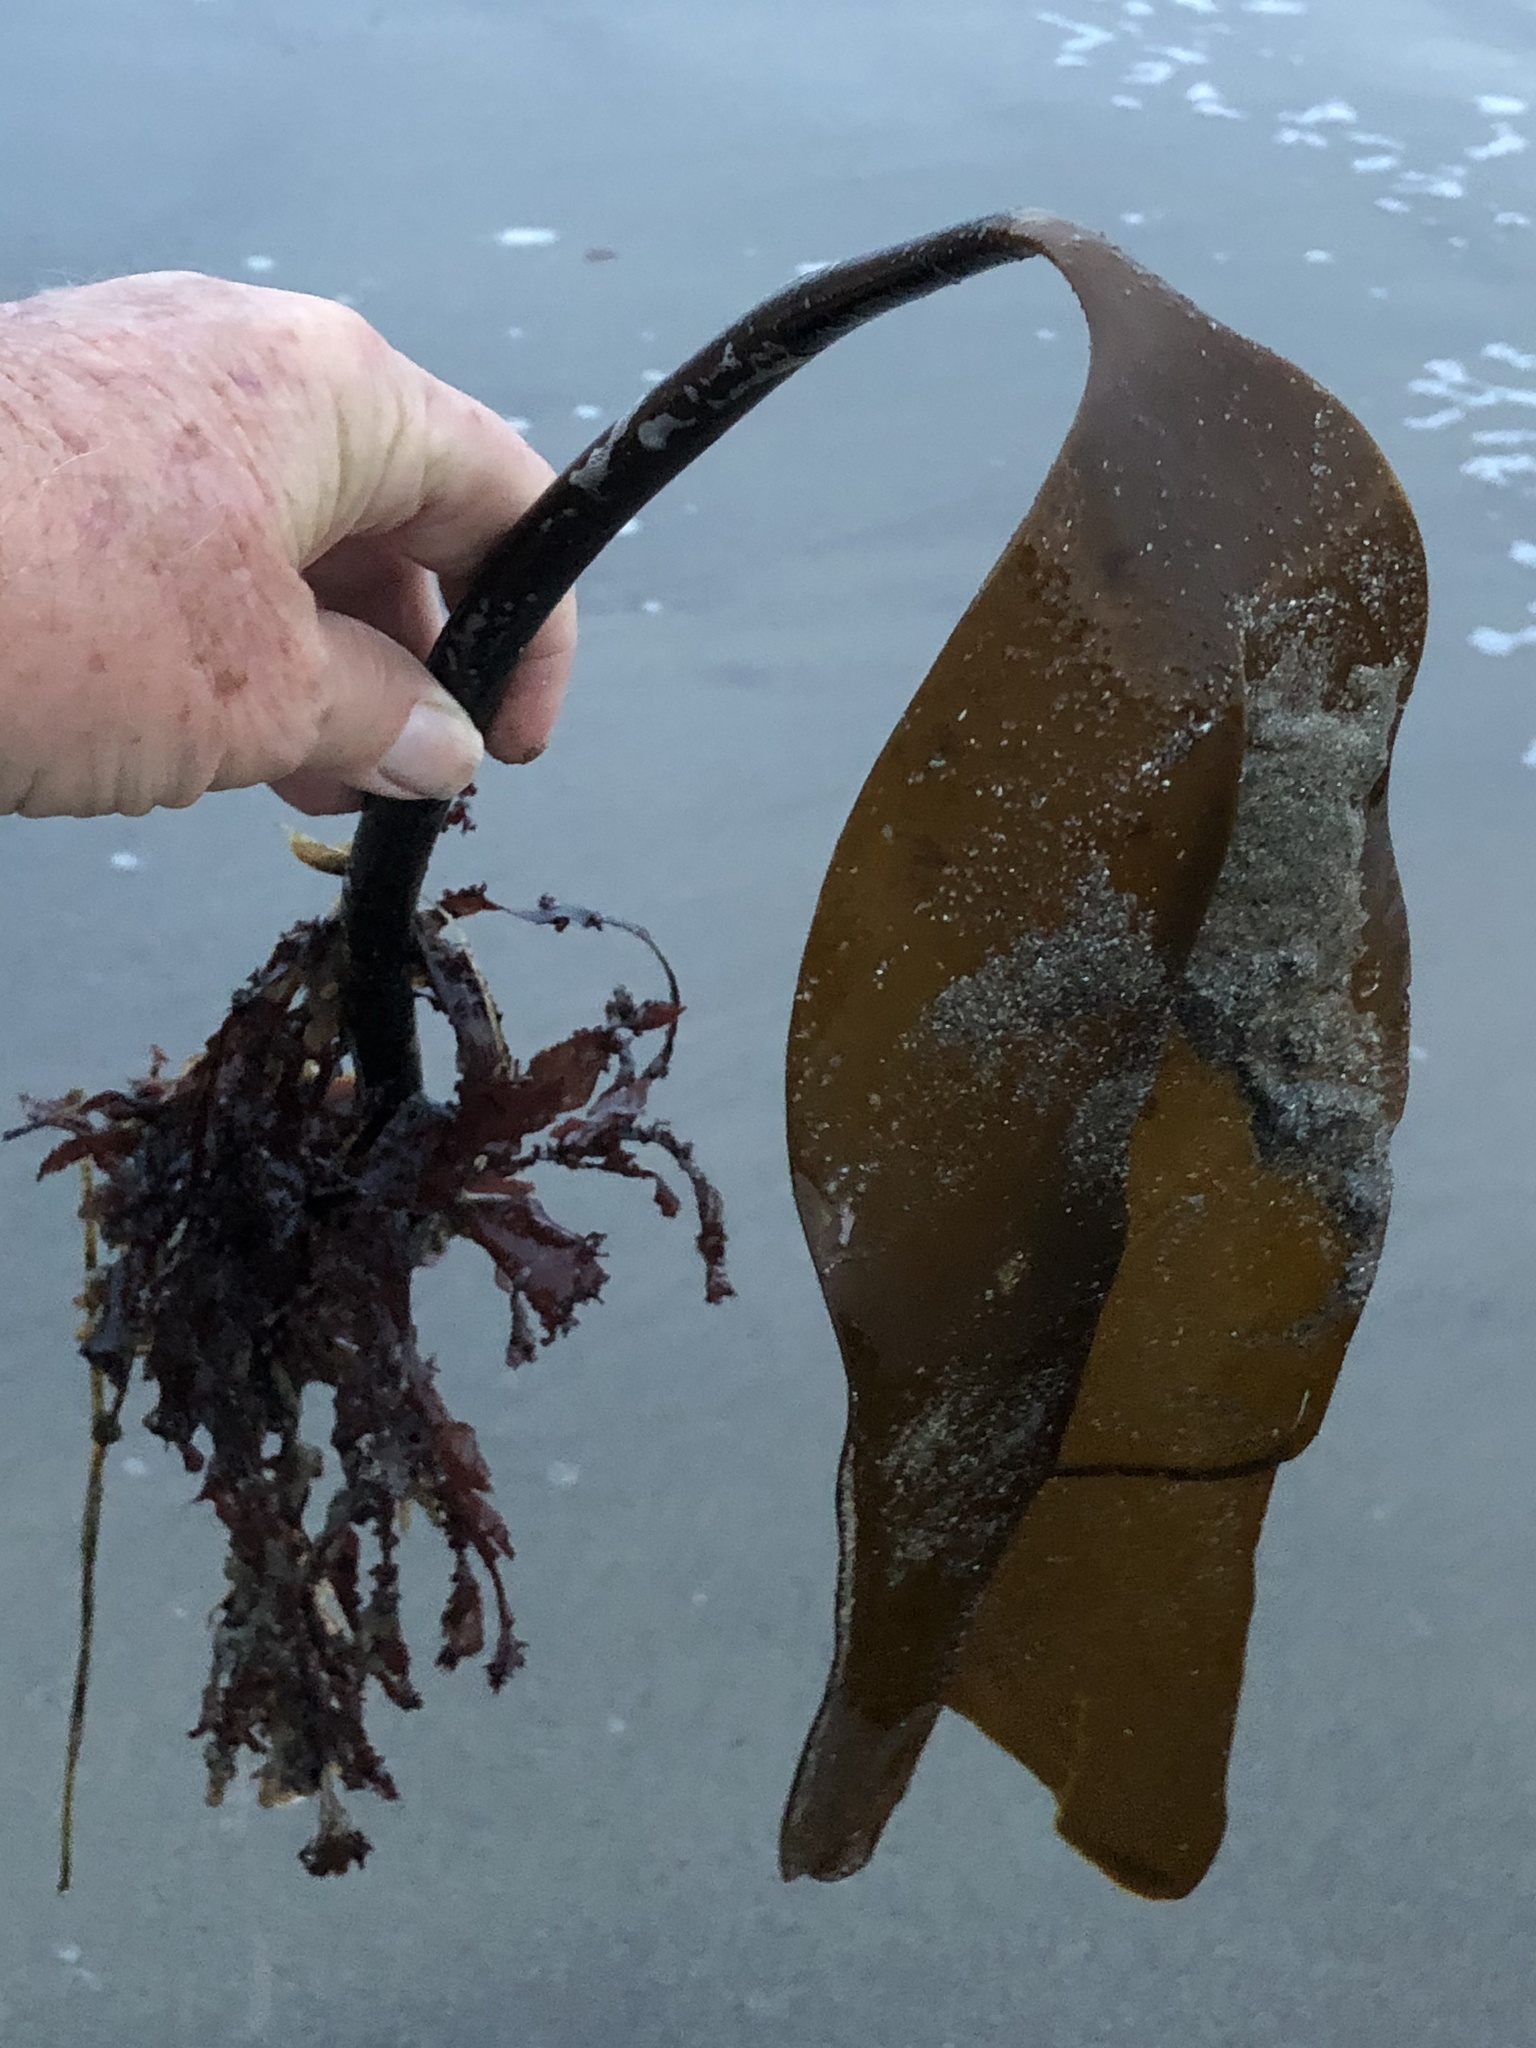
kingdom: Chromista
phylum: Ochrophyta
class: Phaeophyceae
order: Laminariales
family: Laminariaceae
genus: Laminaria
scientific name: Laminaria setchellii
